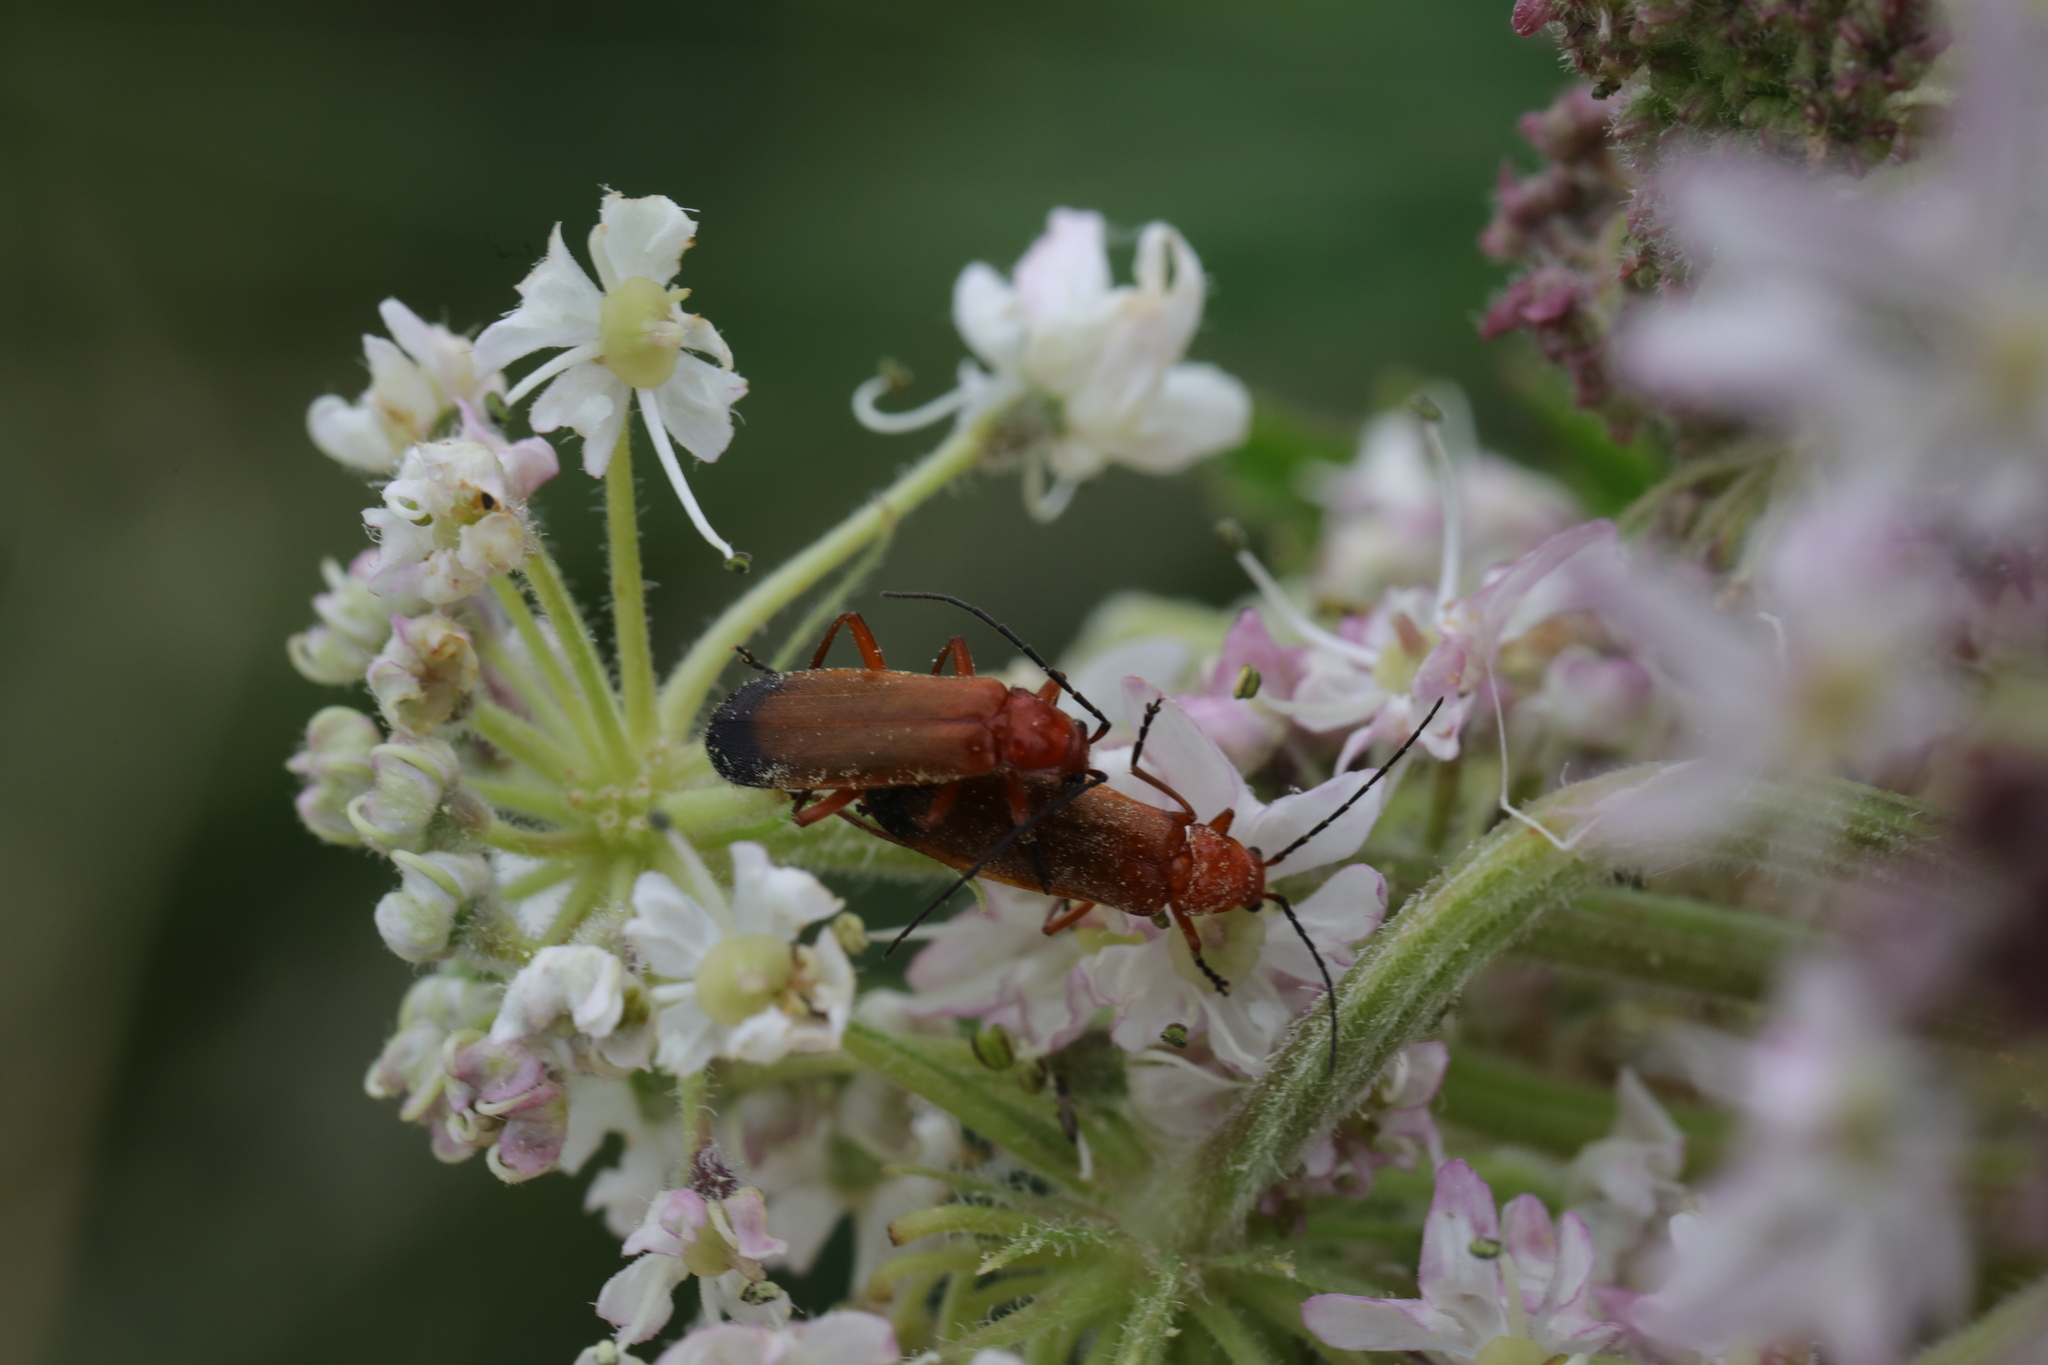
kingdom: Animalia
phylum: Arthropoda
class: Insecta
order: Coleoptera
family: Cantharidae
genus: Rhagonycha
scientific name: Rhagonycha fulva
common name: Common red soldier beetle
